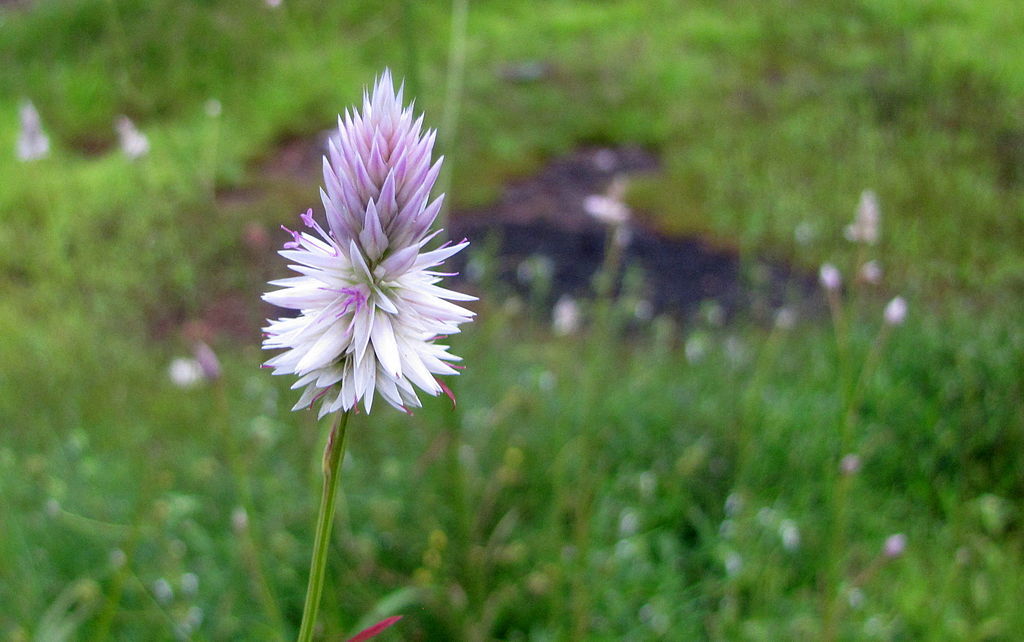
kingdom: Plantae
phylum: Tracheophyta
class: Magnoliopsida
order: Caryophyllales
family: Amaranthaceae
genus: Celosia
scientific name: Celosia argentea
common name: Feather cockscomb
